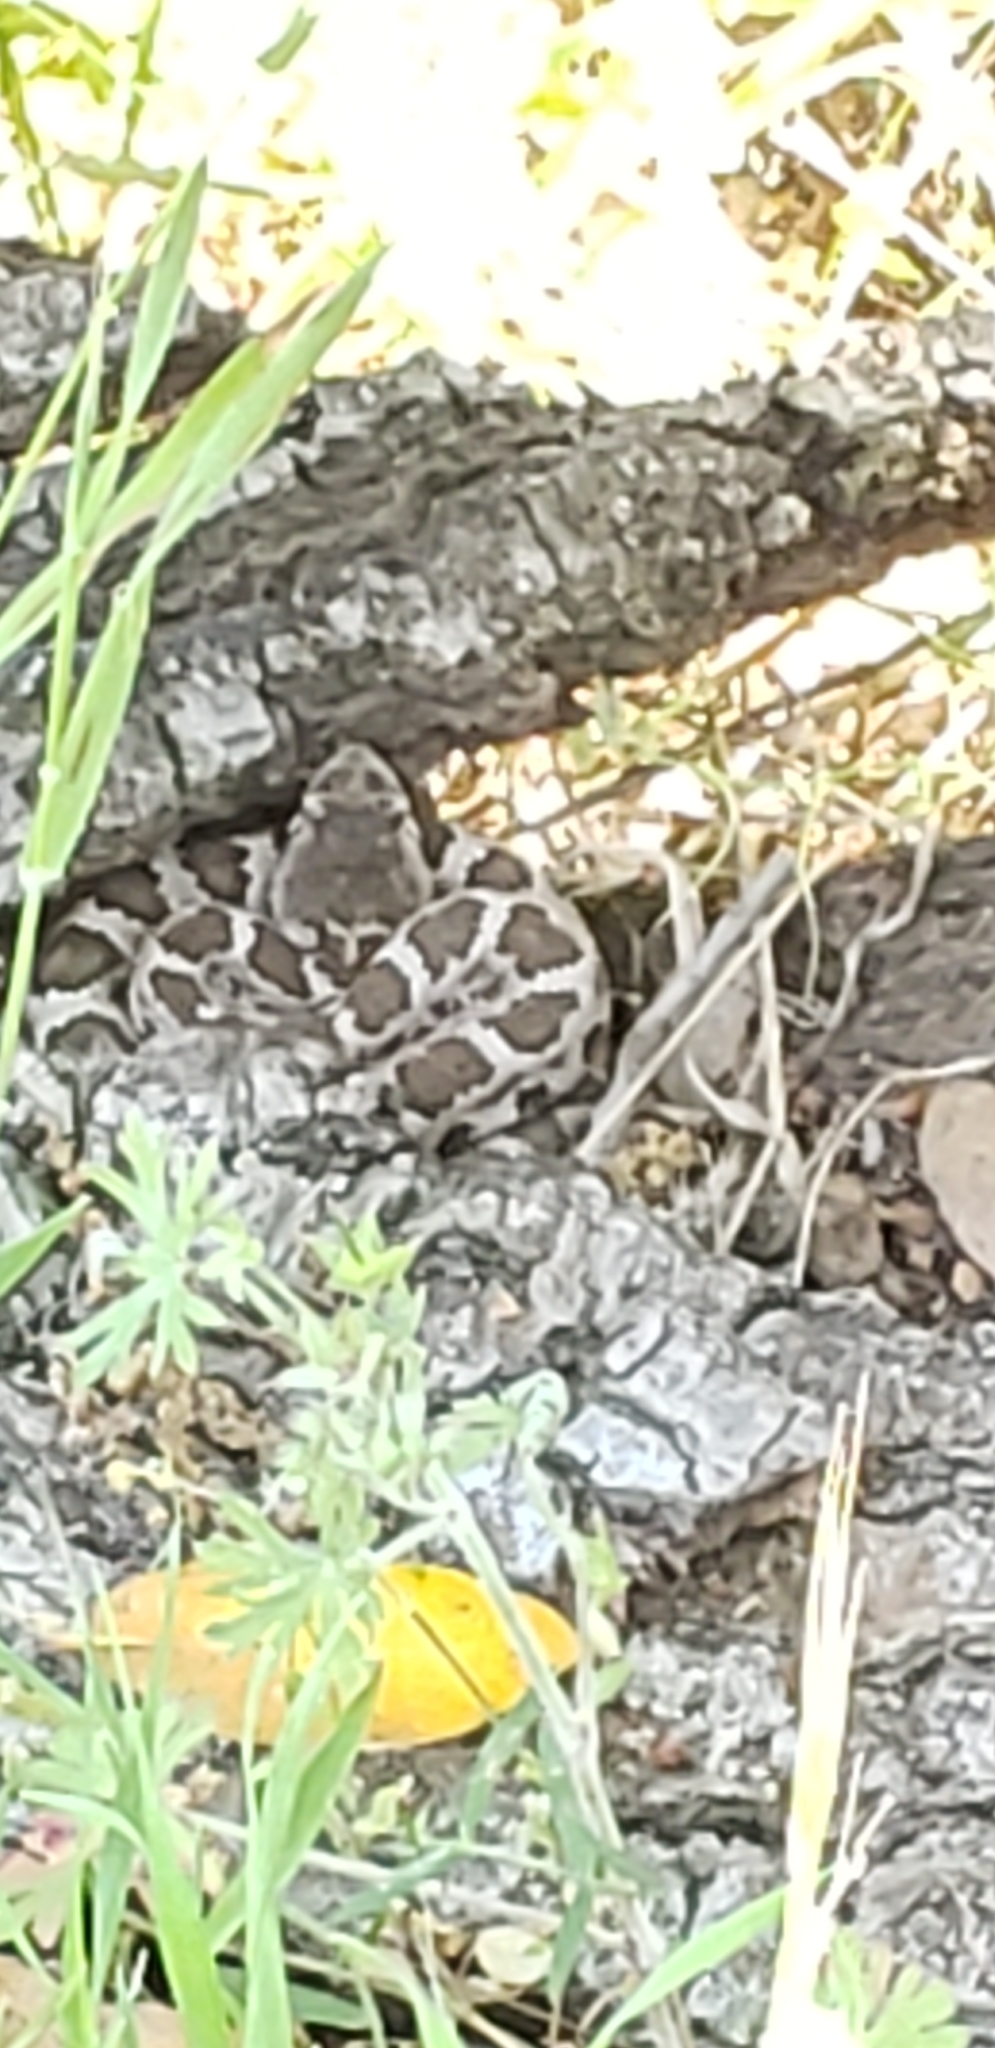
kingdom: Animalia
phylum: Chordata
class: Squamata
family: Viperidae
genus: Crotalus
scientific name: Crotalus oreganus
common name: Abyssus
